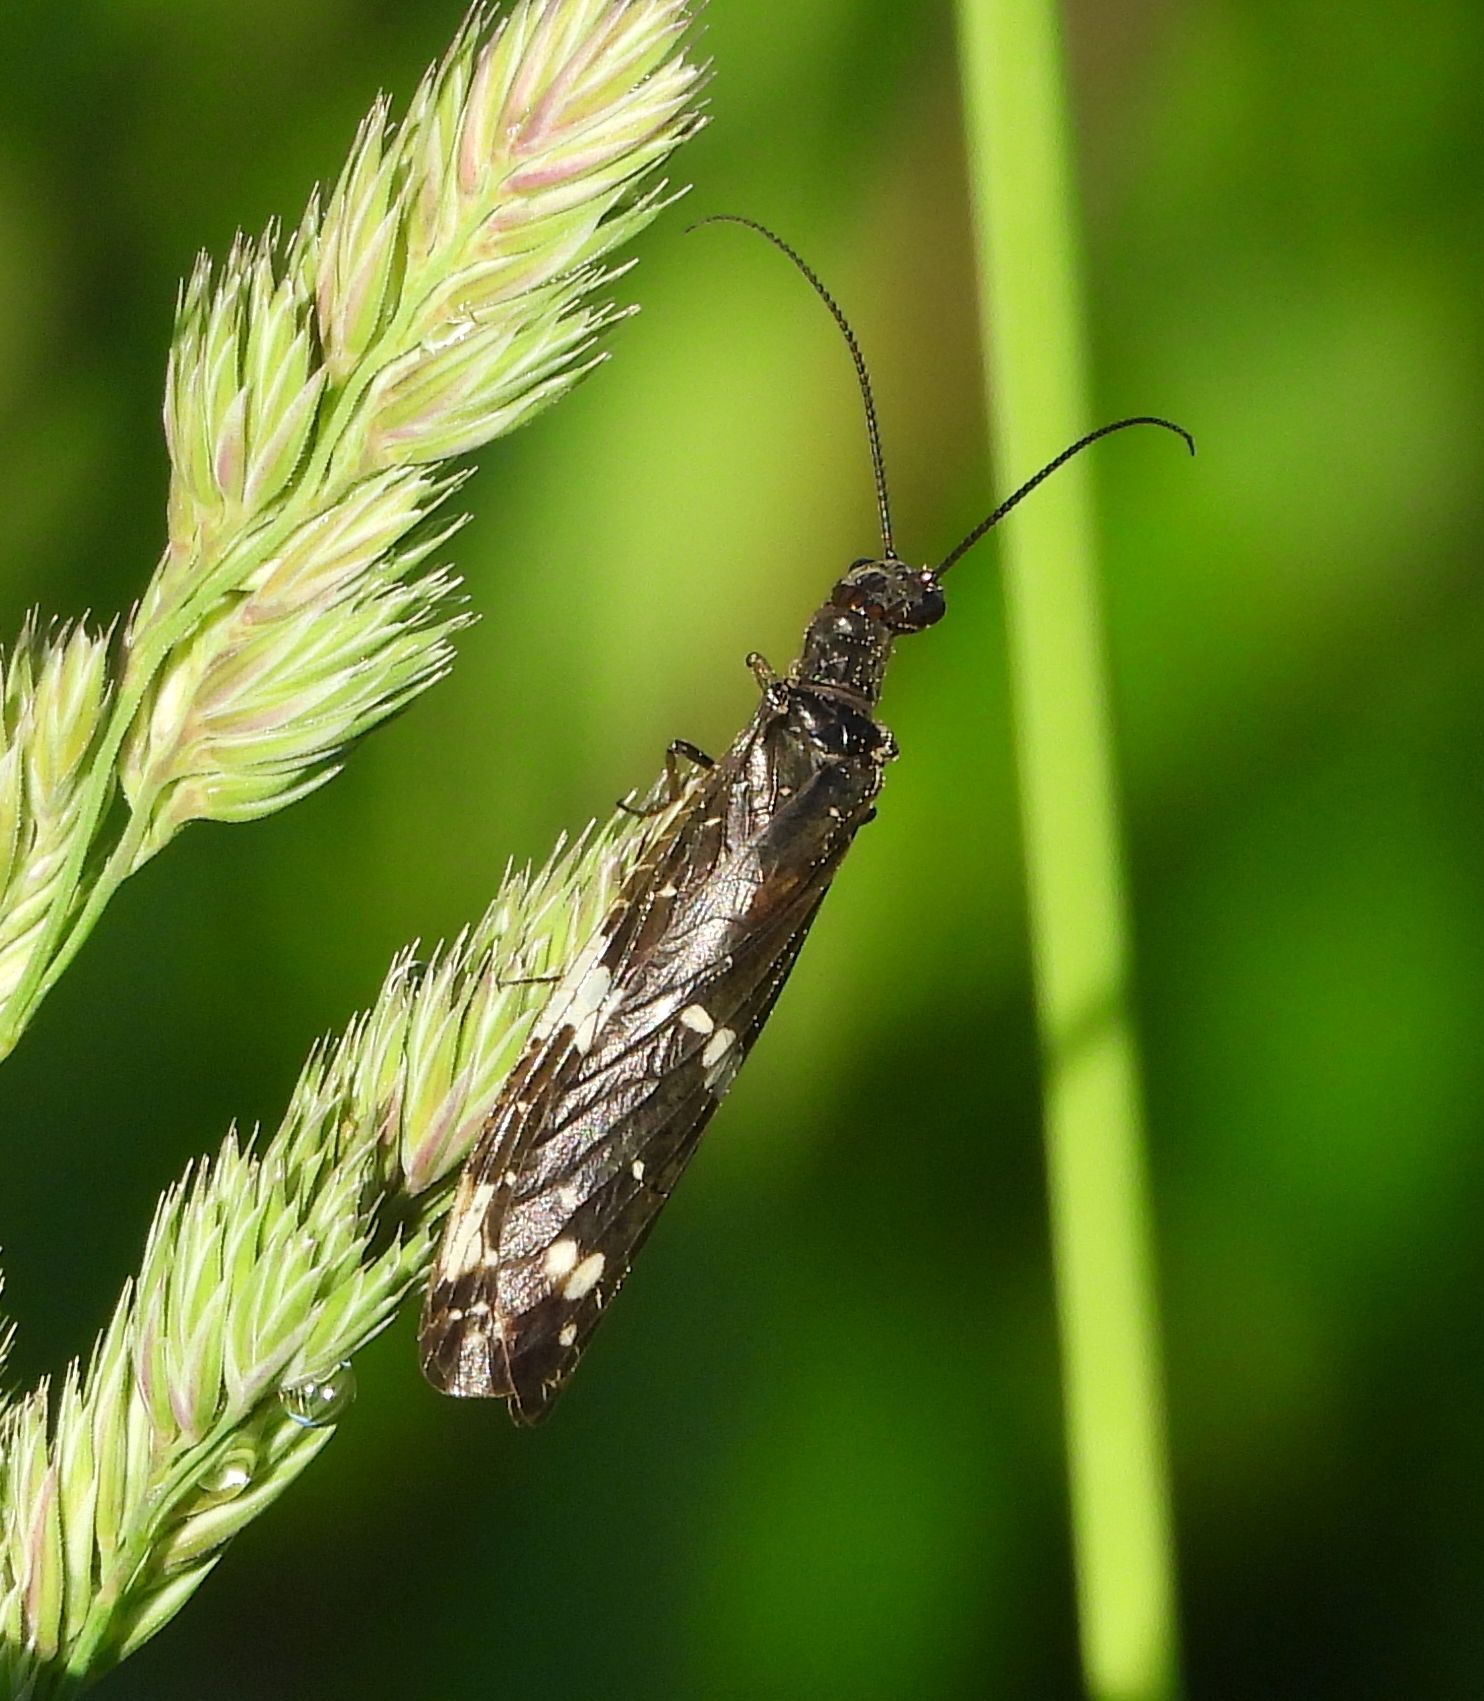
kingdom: Animalia
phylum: Arthropoda
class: Insecta
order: Megaloptera
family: Corydalidae
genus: Nigronia
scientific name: Nigronia serricornis
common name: Serrate dark fishfly
